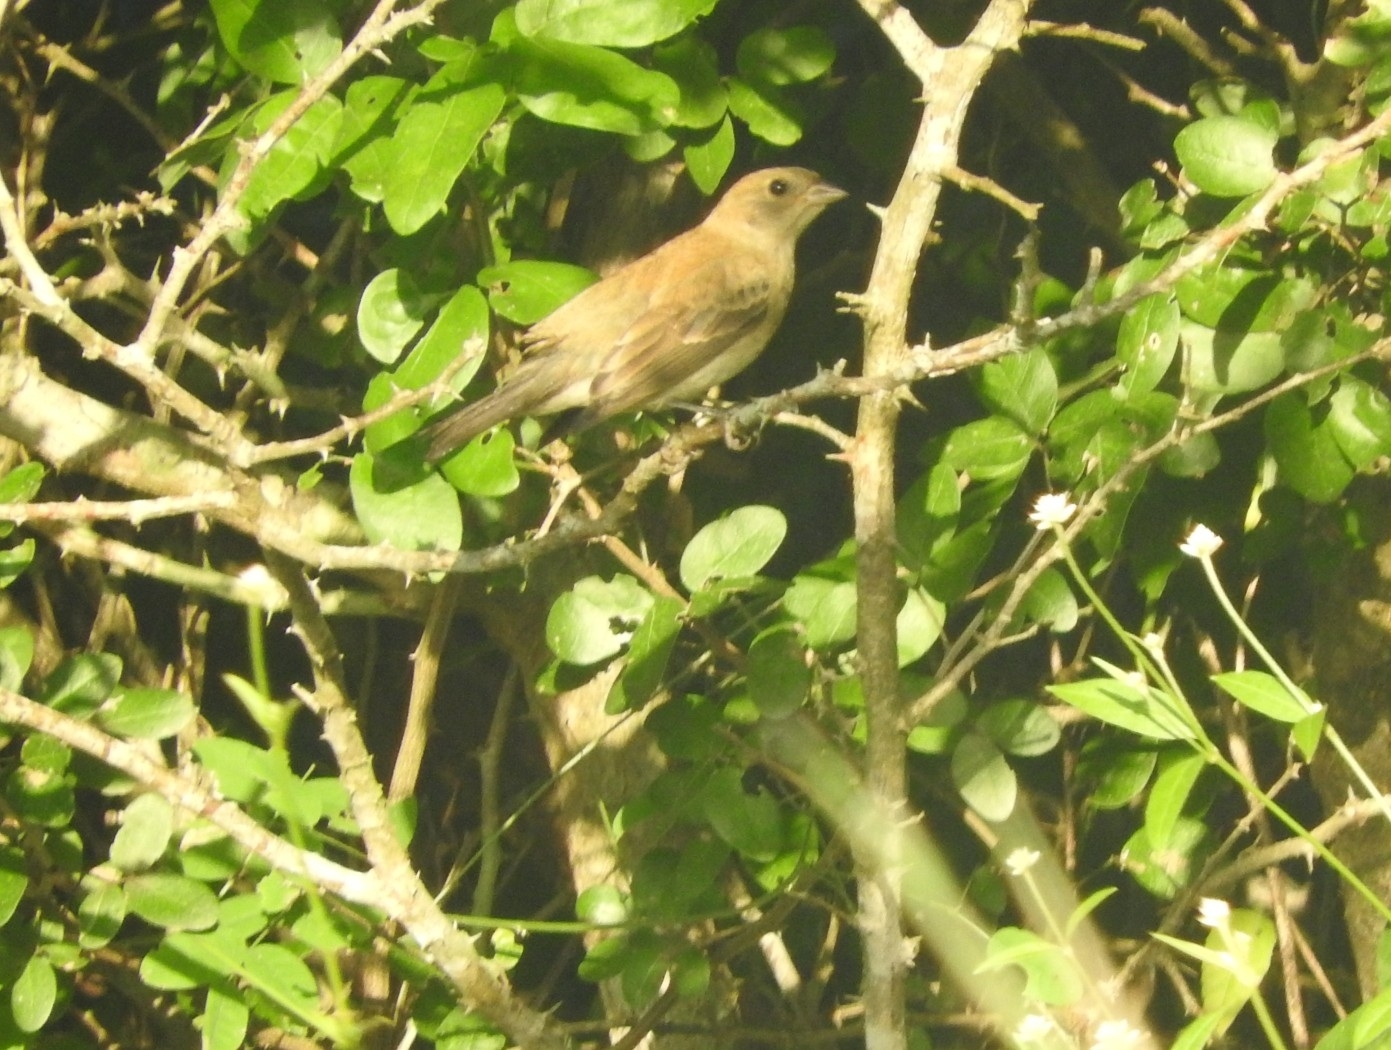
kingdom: Animalia
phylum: Chordata
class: Aves
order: Passeriformes
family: Cardinalidae
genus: Passerina
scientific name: Passerina cyanea
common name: Indigo bunting
